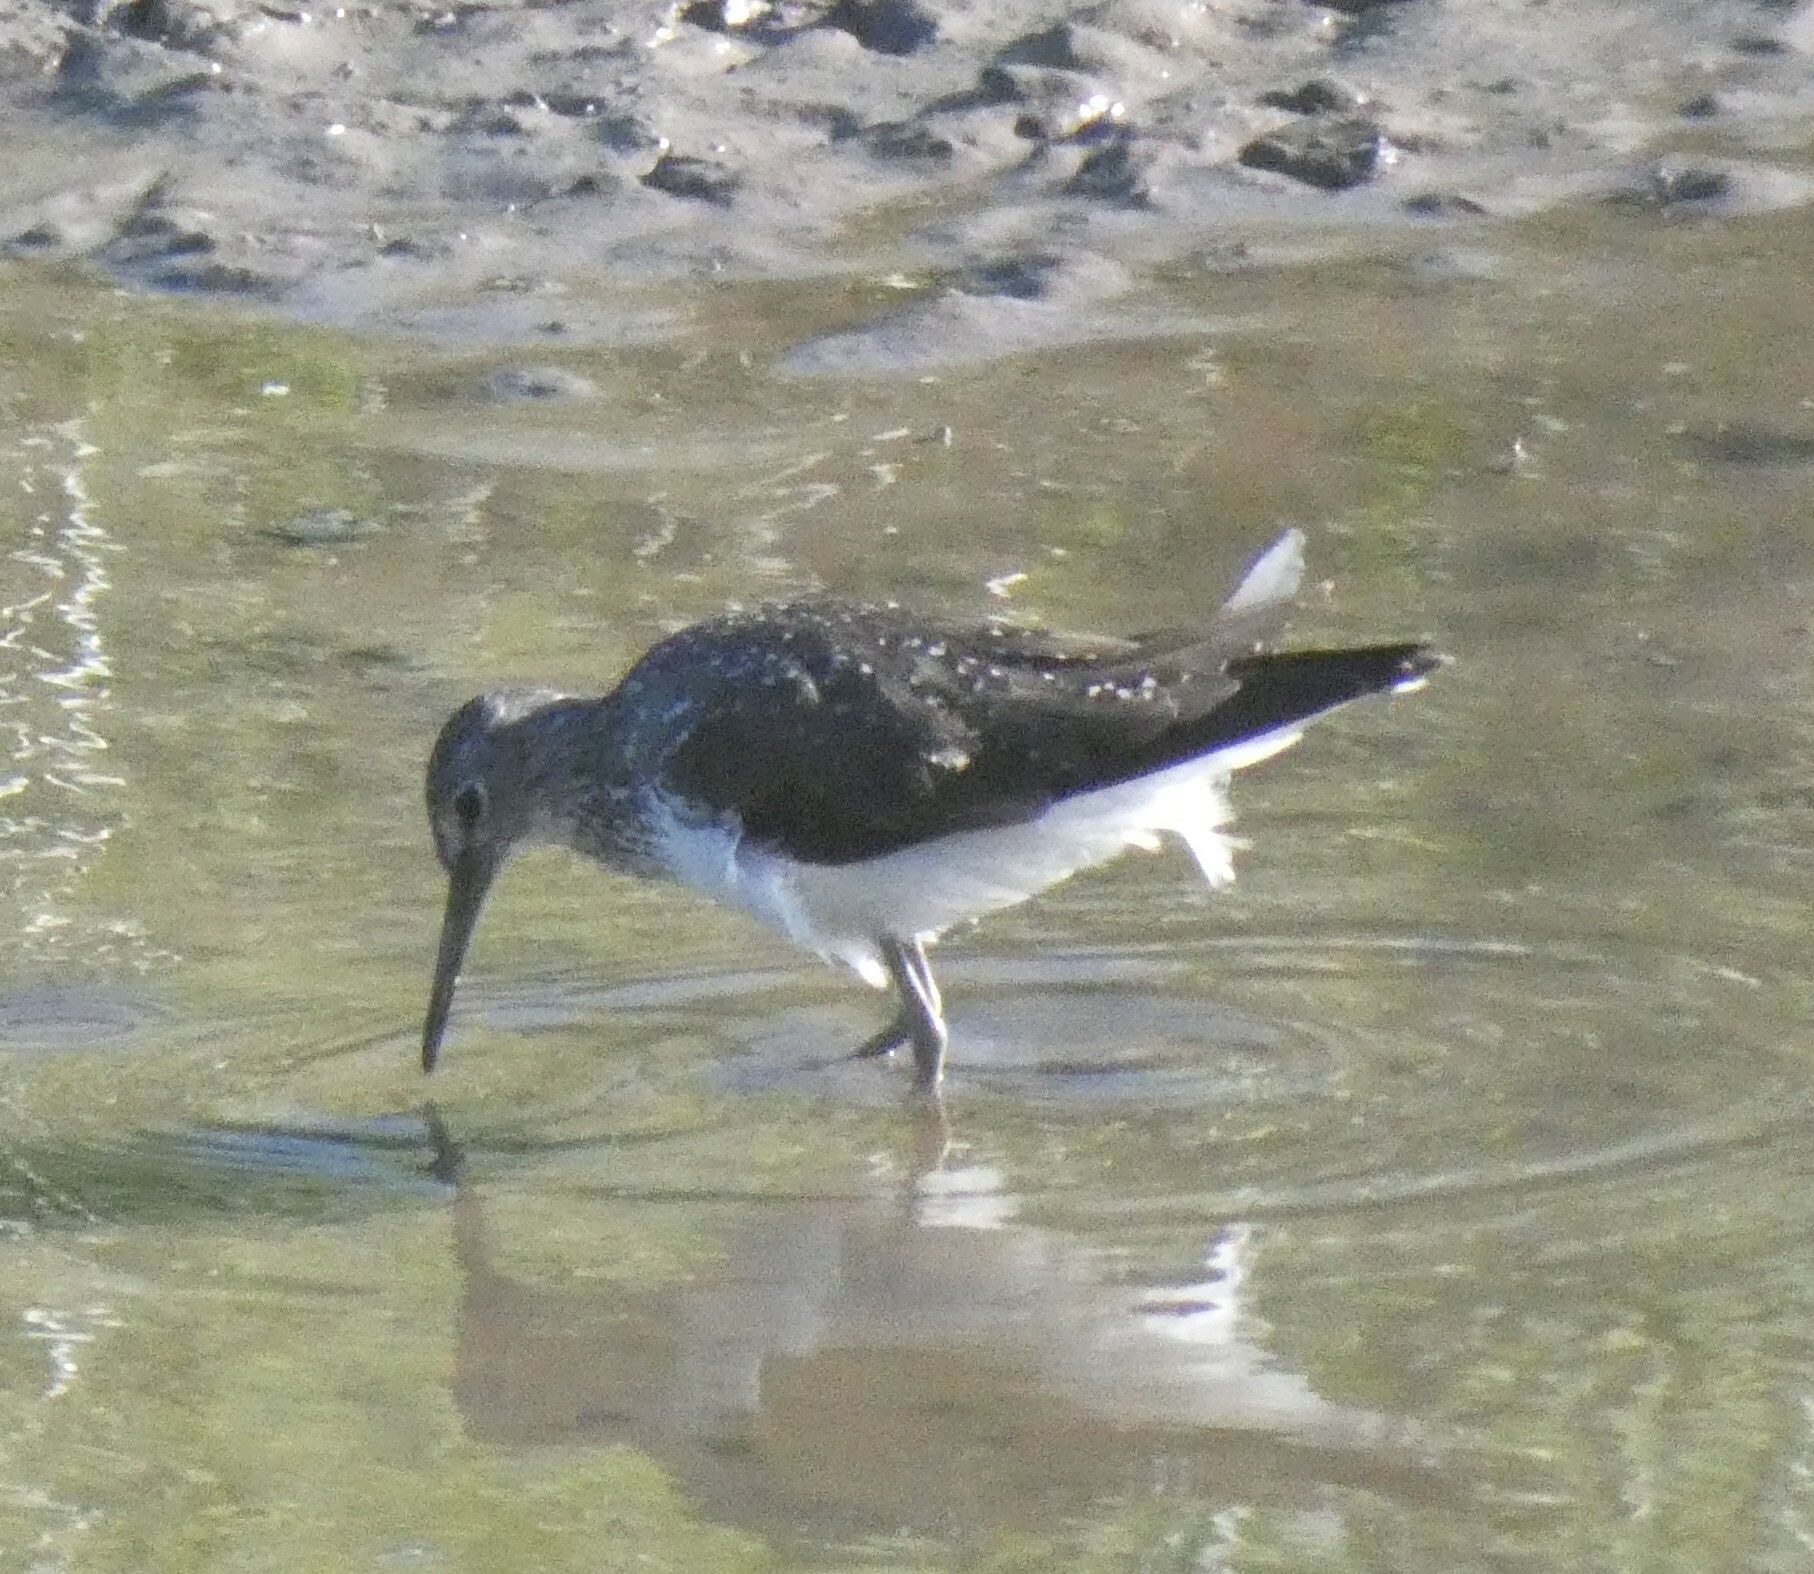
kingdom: Animalia
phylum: Chordata
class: Aves
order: Charadriiformes
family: Scolopacidae
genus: Tringa
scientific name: Tringa ochropus
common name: Green sandpiper
